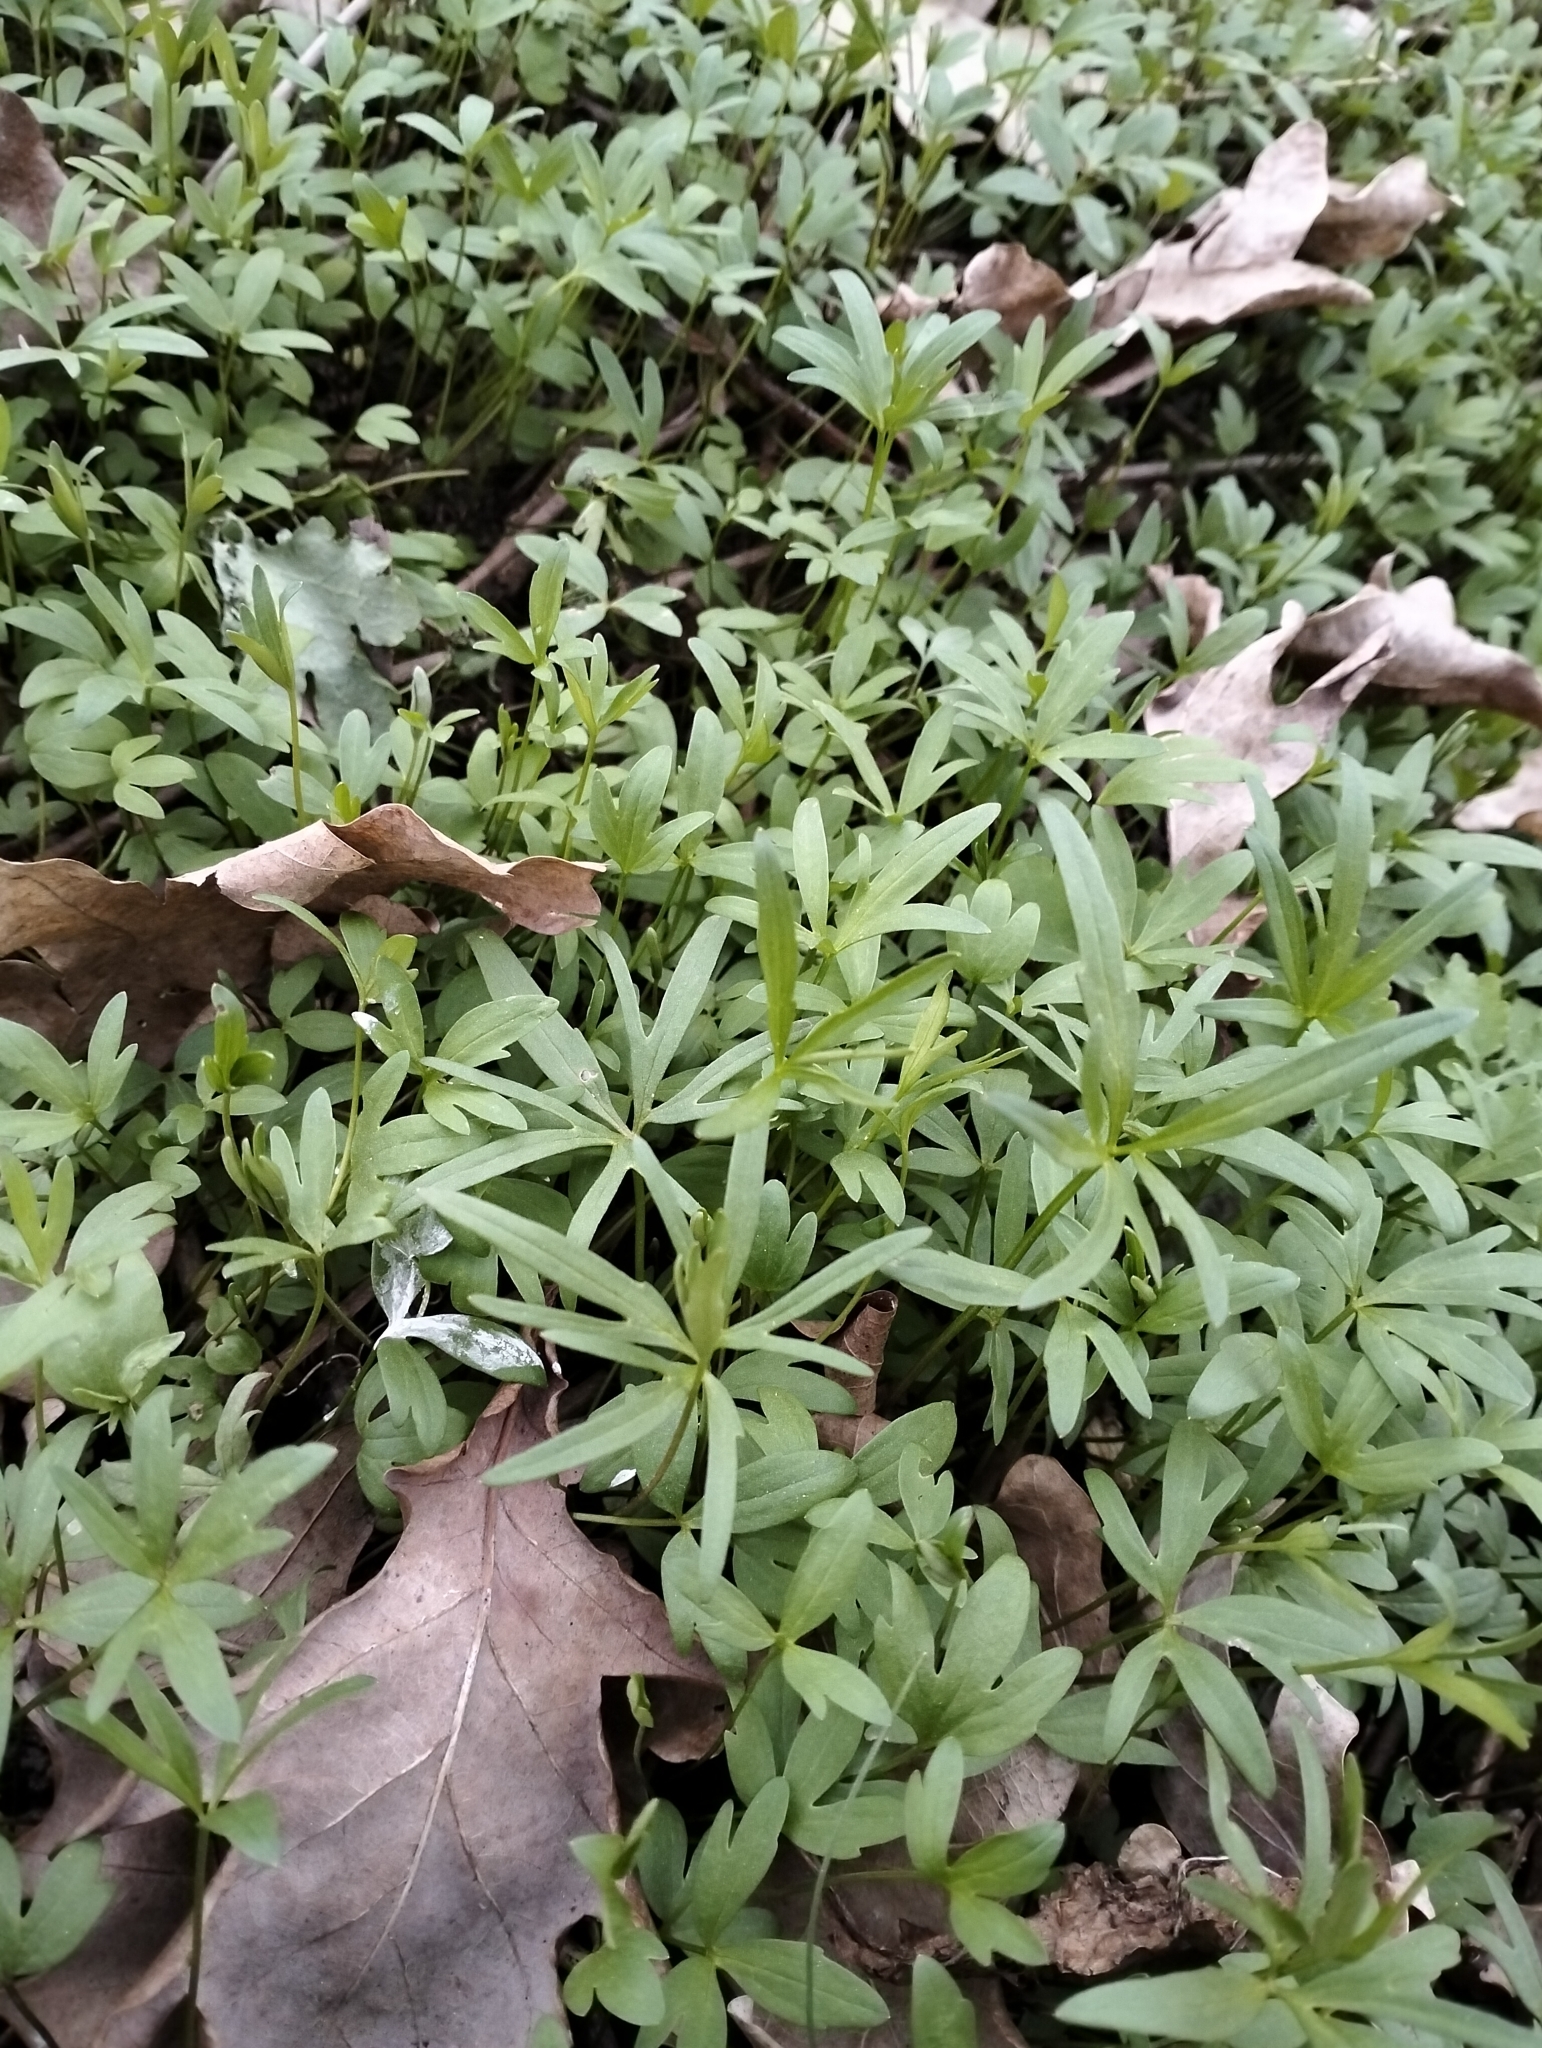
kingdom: Plantae
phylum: Tracheophyta
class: Magnoliopsida
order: Ranunculales
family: Ranunculaceae
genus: Ranunculus
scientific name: Ranunculus pedatus
